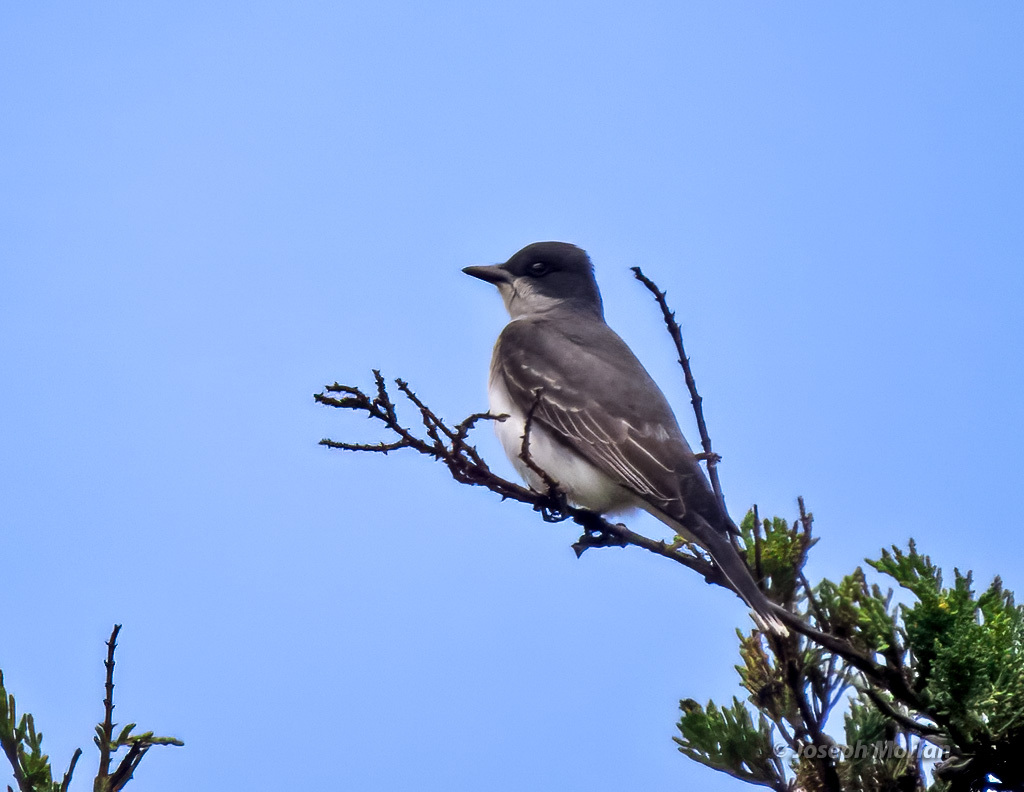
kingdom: Animalia
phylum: Chordata
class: Aves
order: Passeriformes
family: Tyrannidae
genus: Tyrannus
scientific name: Tyrannus tyrannus
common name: Eastern kingbird
